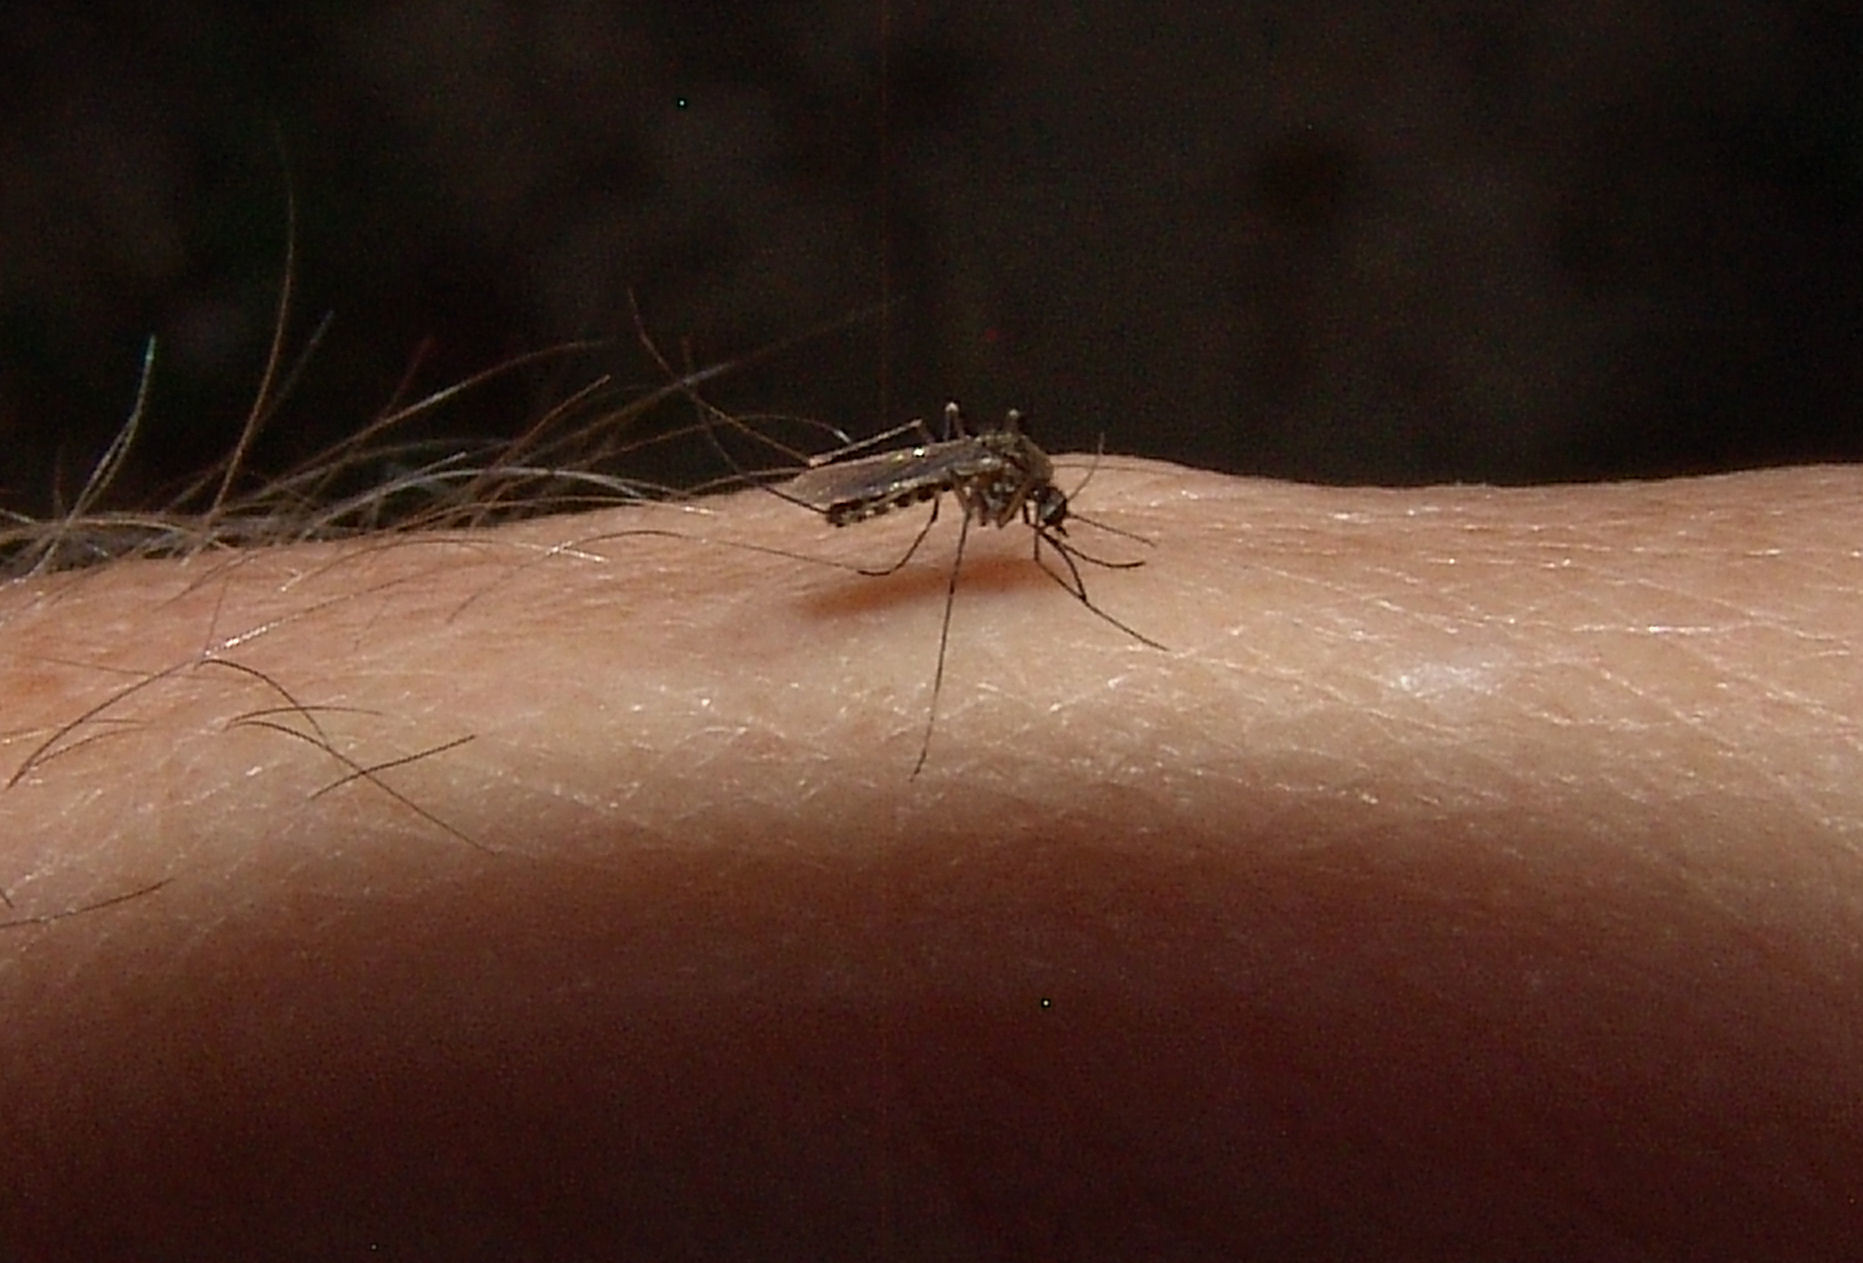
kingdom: Animalia
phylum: Arthropoda
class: Insecta
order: Diptera
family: Culicidae
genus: Culex
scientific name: Culex erraticus
